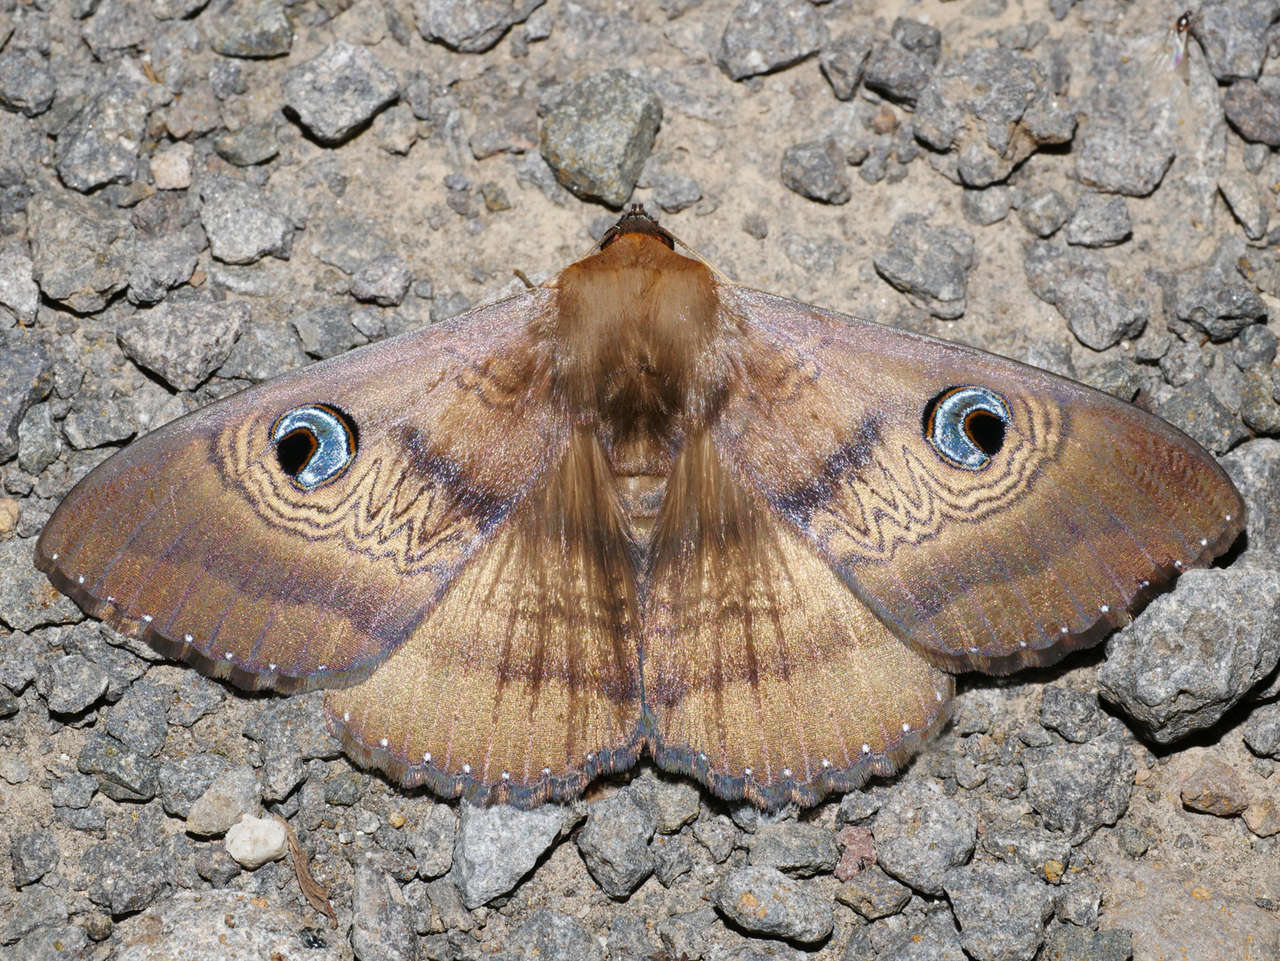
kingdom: Animalia
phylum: Arthropoda
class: Insecta
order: Lepidoptera
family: Erebidae
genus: Dasypodia
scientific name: Dasypodia selenophora
